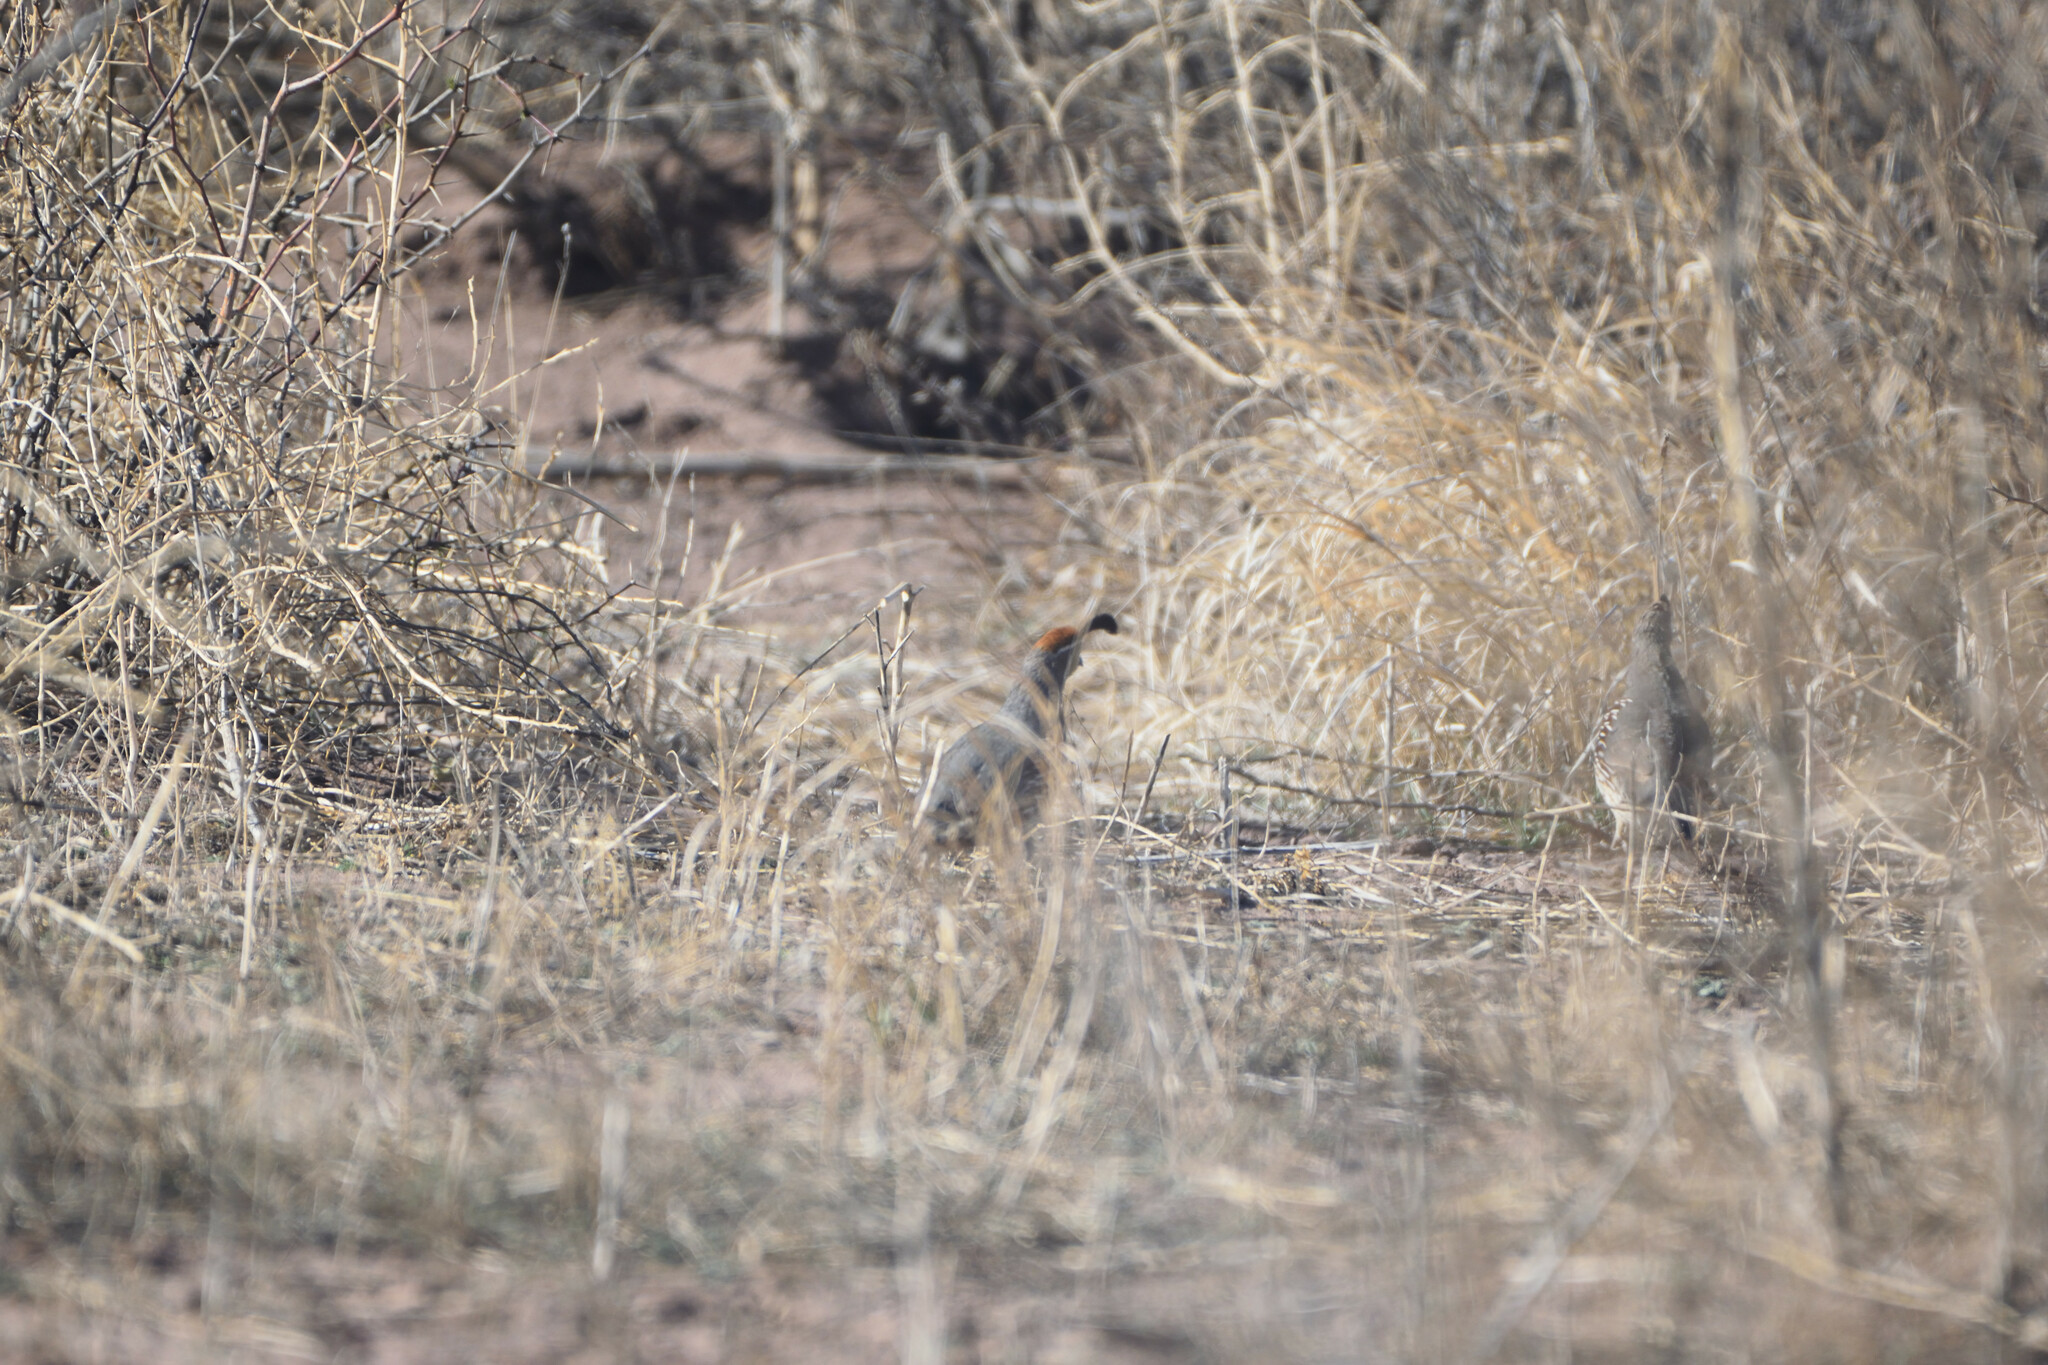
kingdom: Animalia
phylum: Chordata
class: Aves
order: Galliformes
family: Odontophoridae
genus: Callipepla
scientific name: Callipepla gambelii
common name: Gambel's quail
